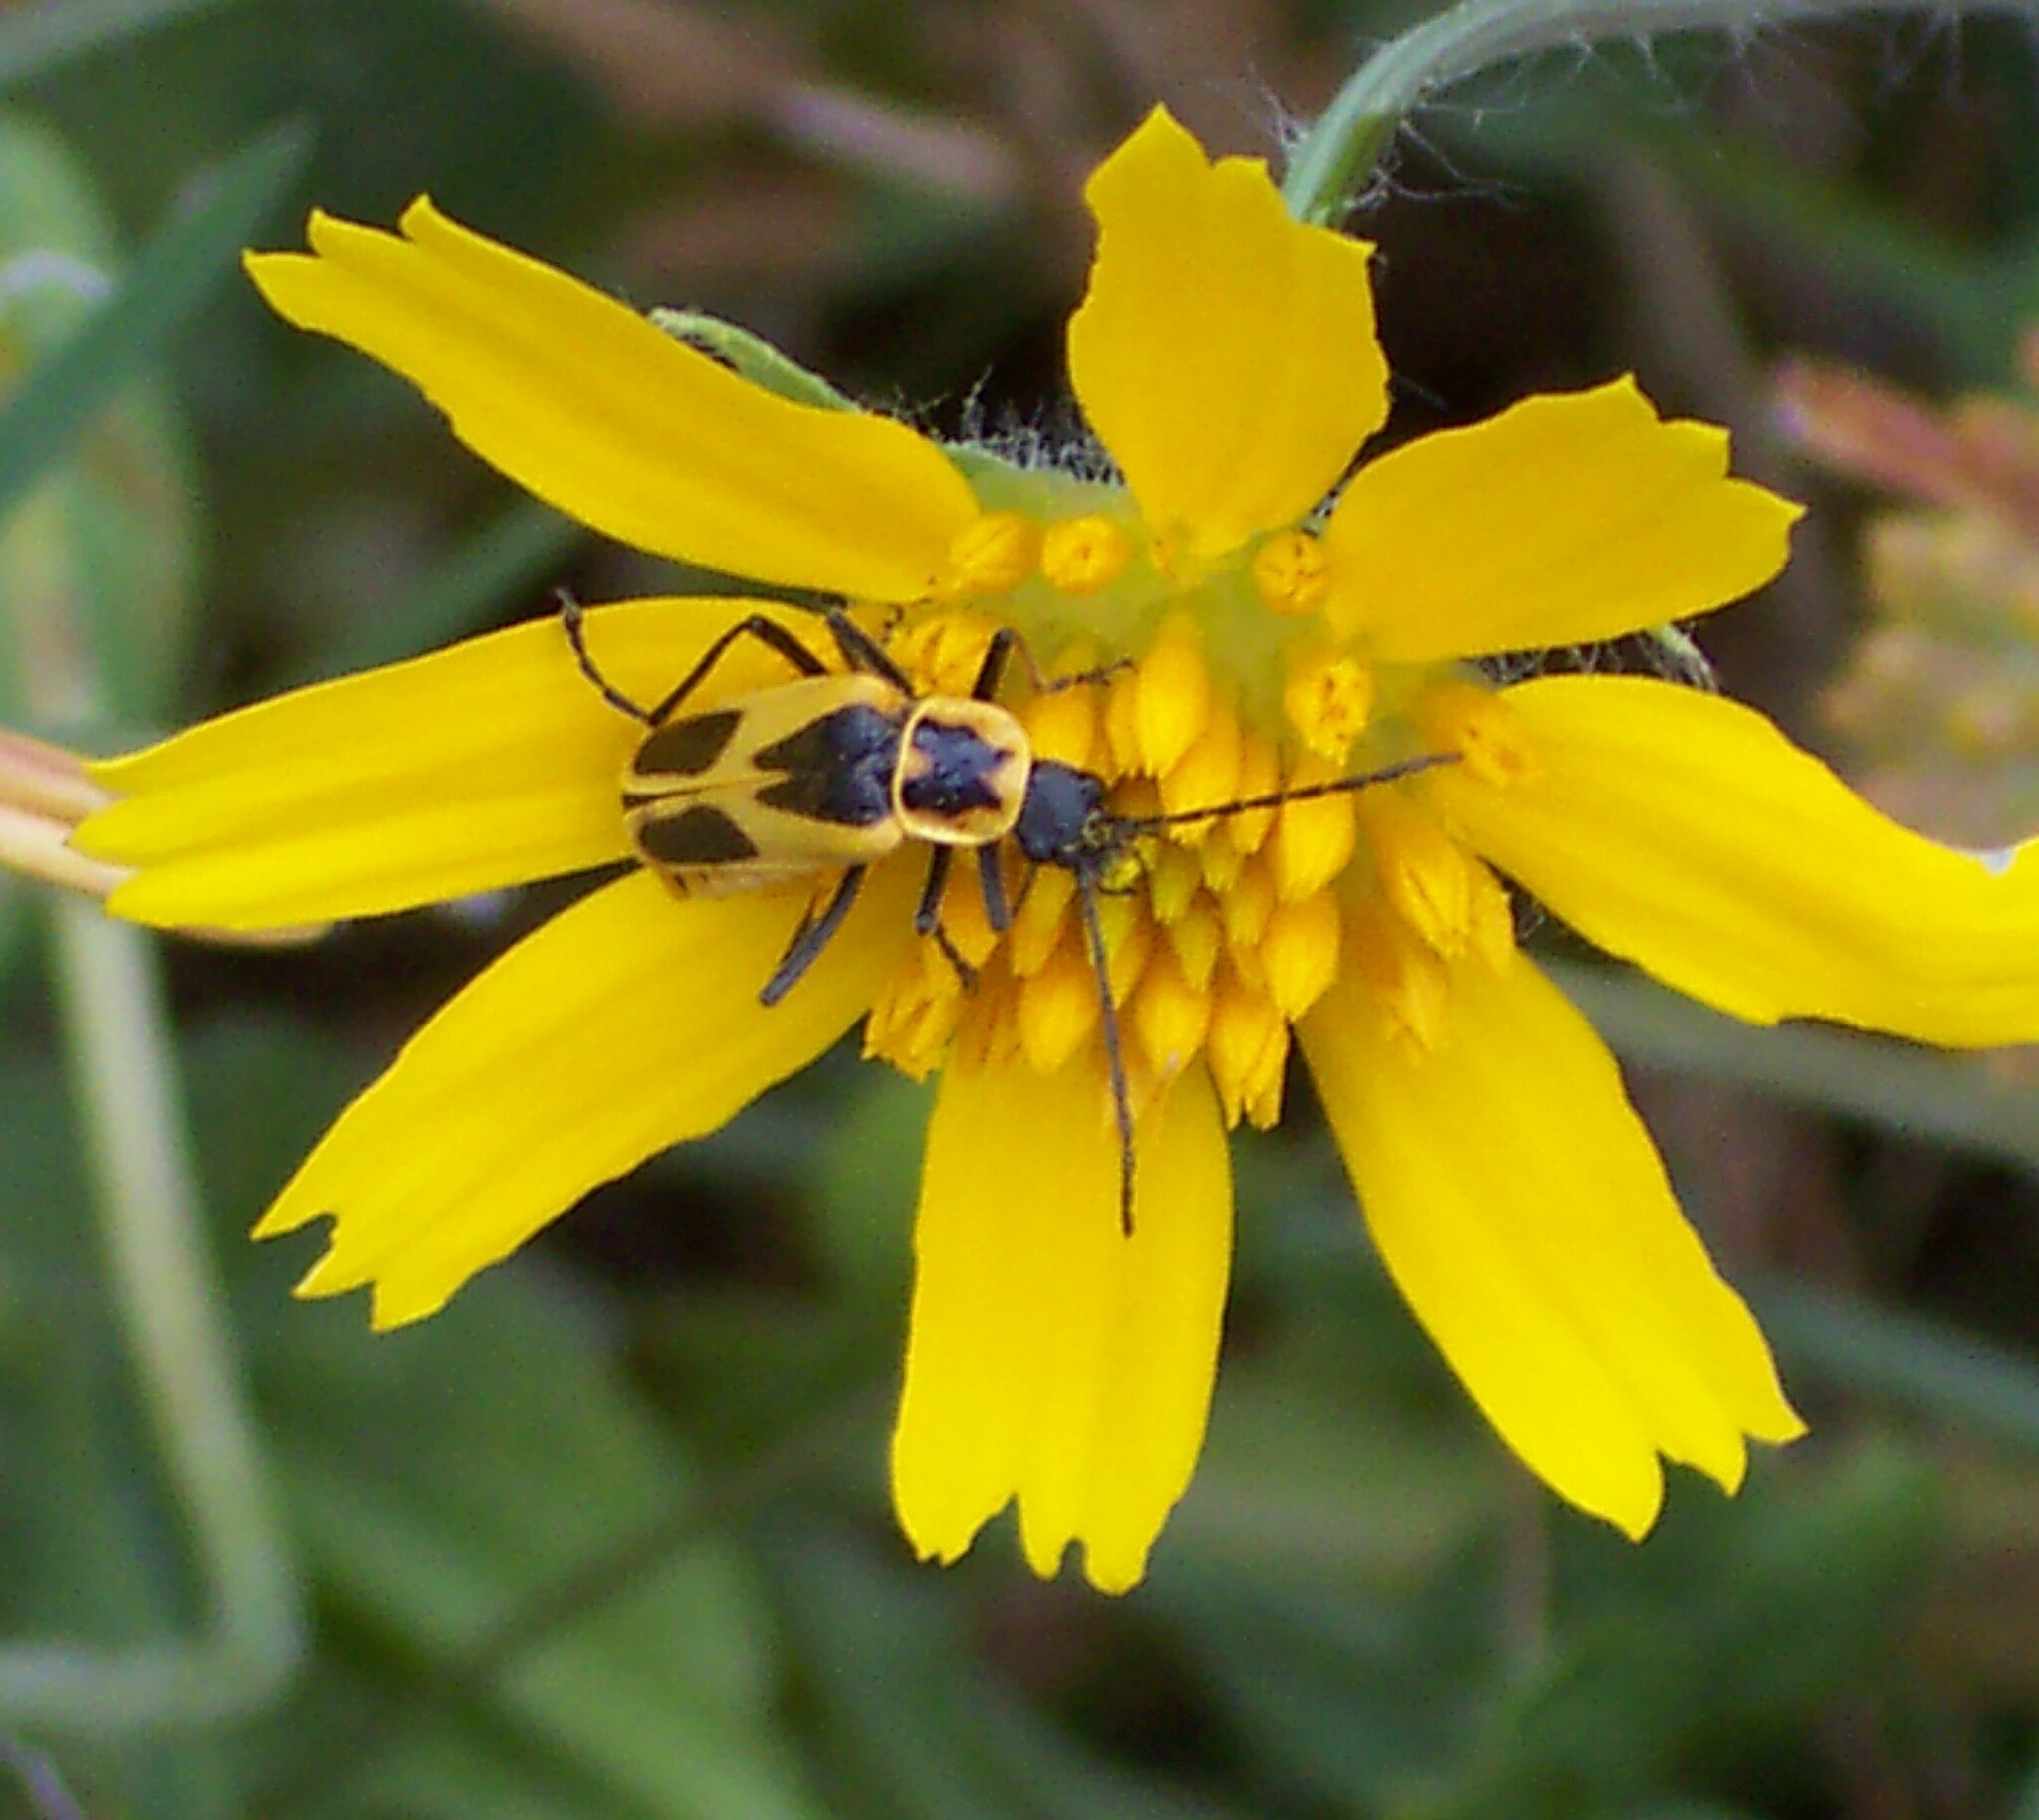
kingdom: Animalia
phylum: Arthropoda
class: Insecta
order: Coleoptera
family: Cantharidae
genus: Chauliognathus
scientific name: Chauliognathus scutellaris
